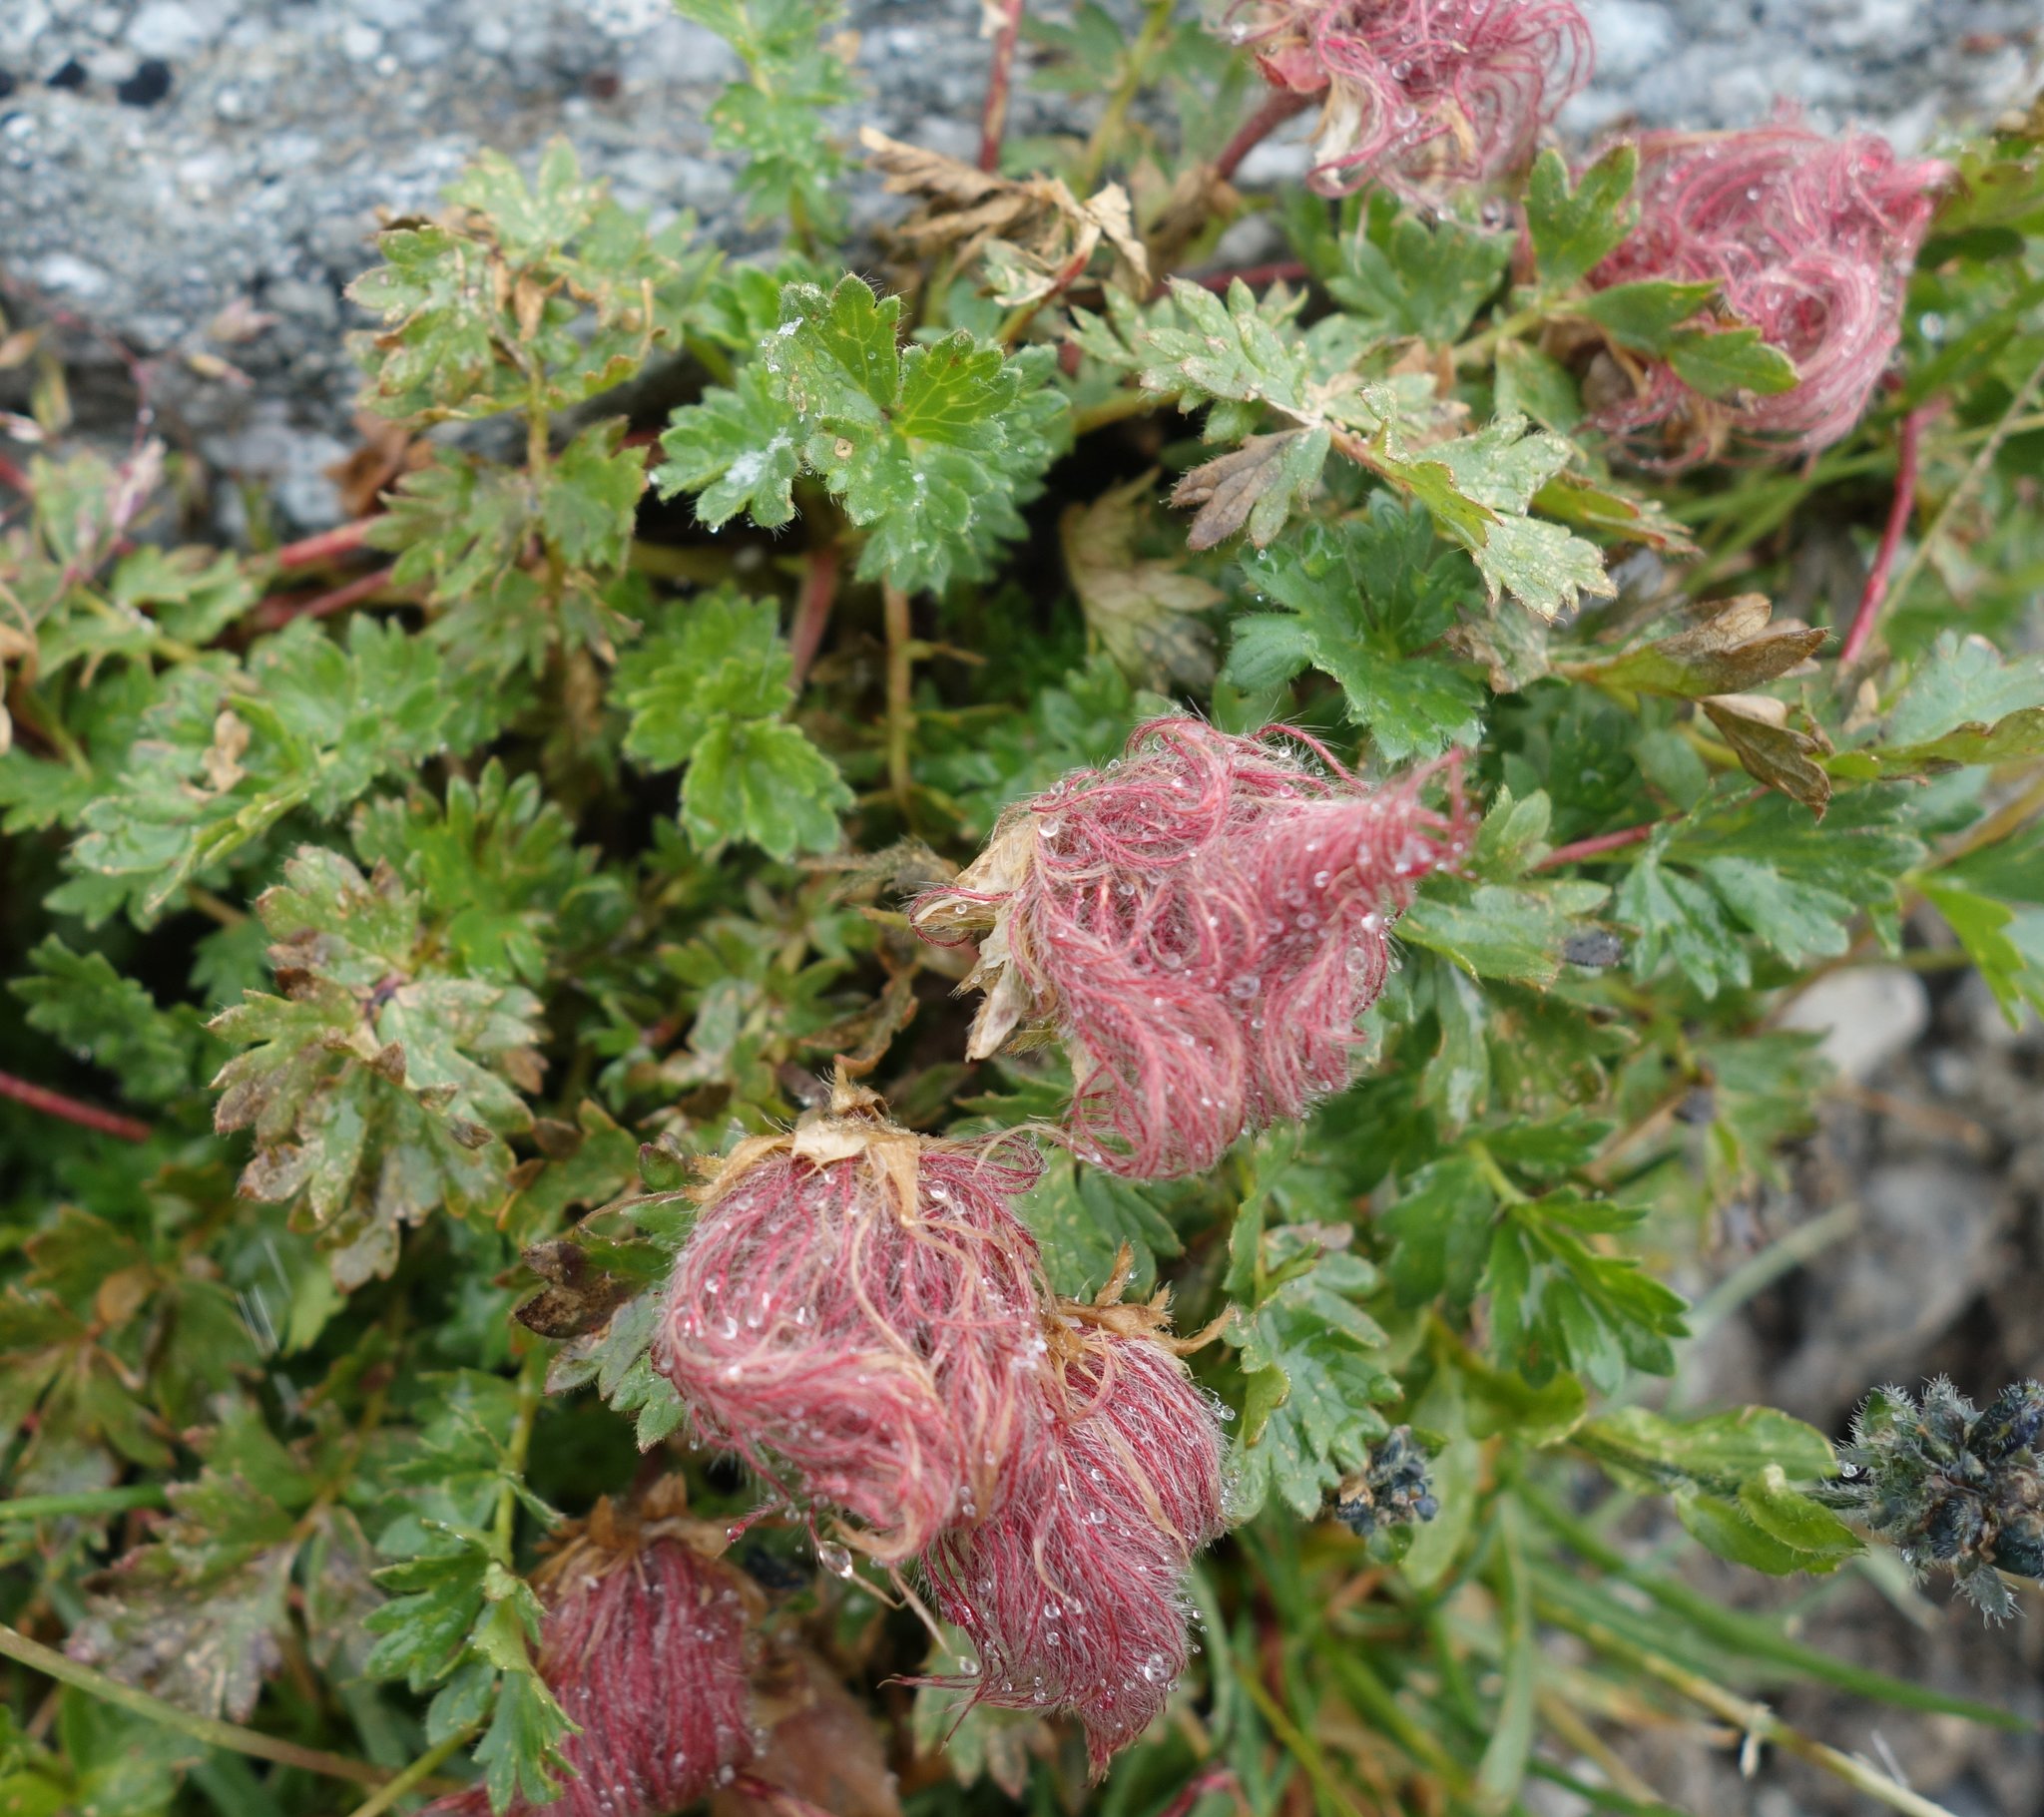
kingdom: Plantae
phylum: Tracheophyta
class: Magnoliopsida
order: Rosales
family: Rosaceae
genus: Geum
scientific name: Geum reptans
